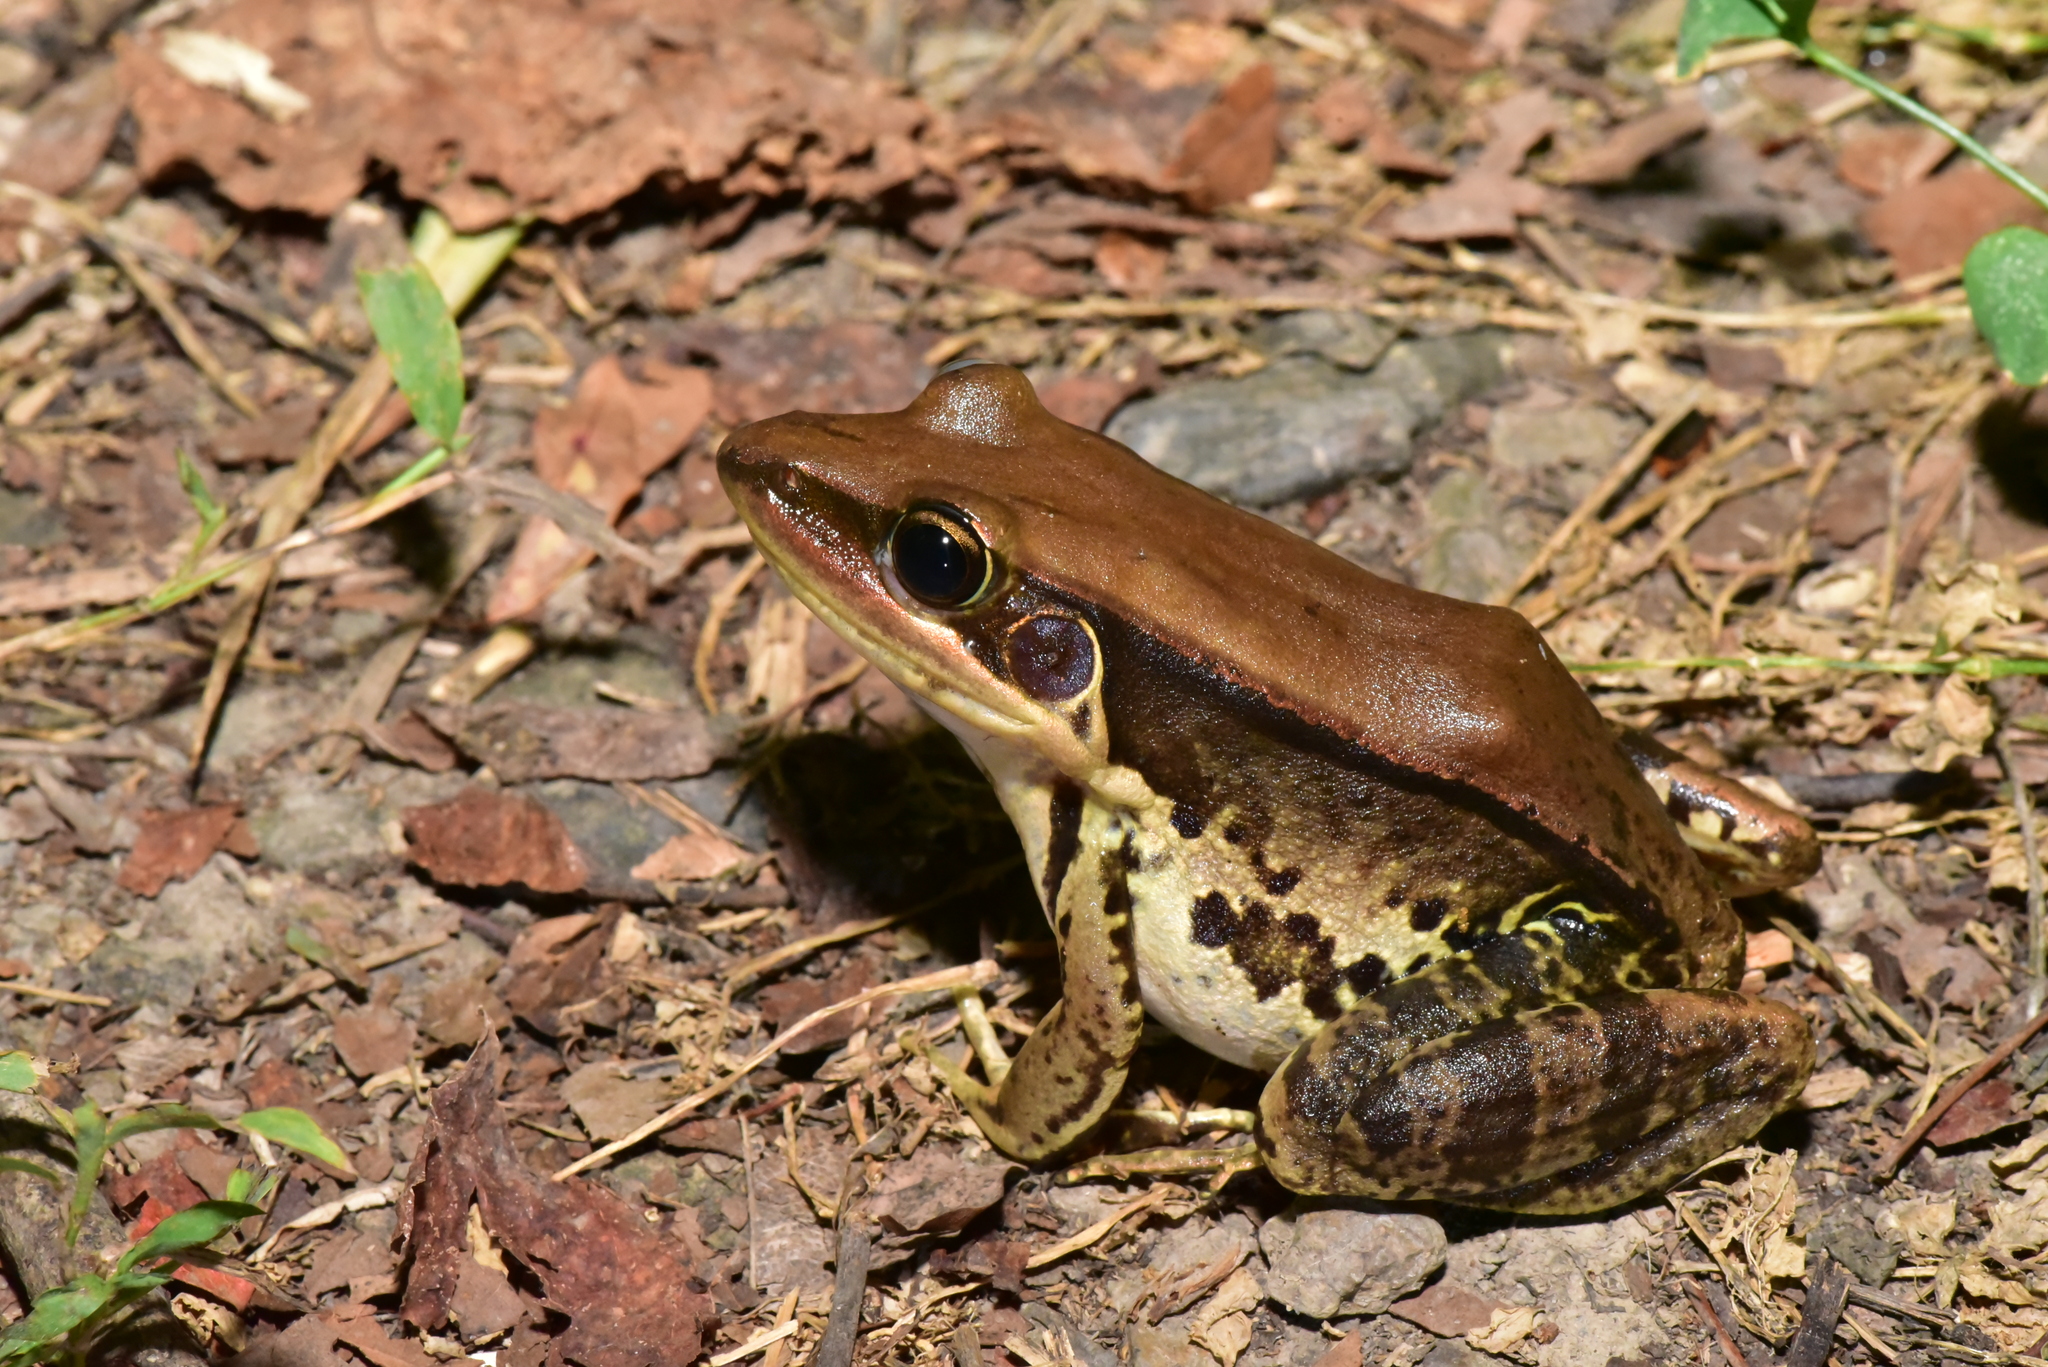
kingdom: Animalia
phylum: Chordata
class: Amphibia
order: Anura
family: Ranidae
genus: Sylvirana
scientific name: Sylvirana guentheri
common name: Guenther's amoy frog
